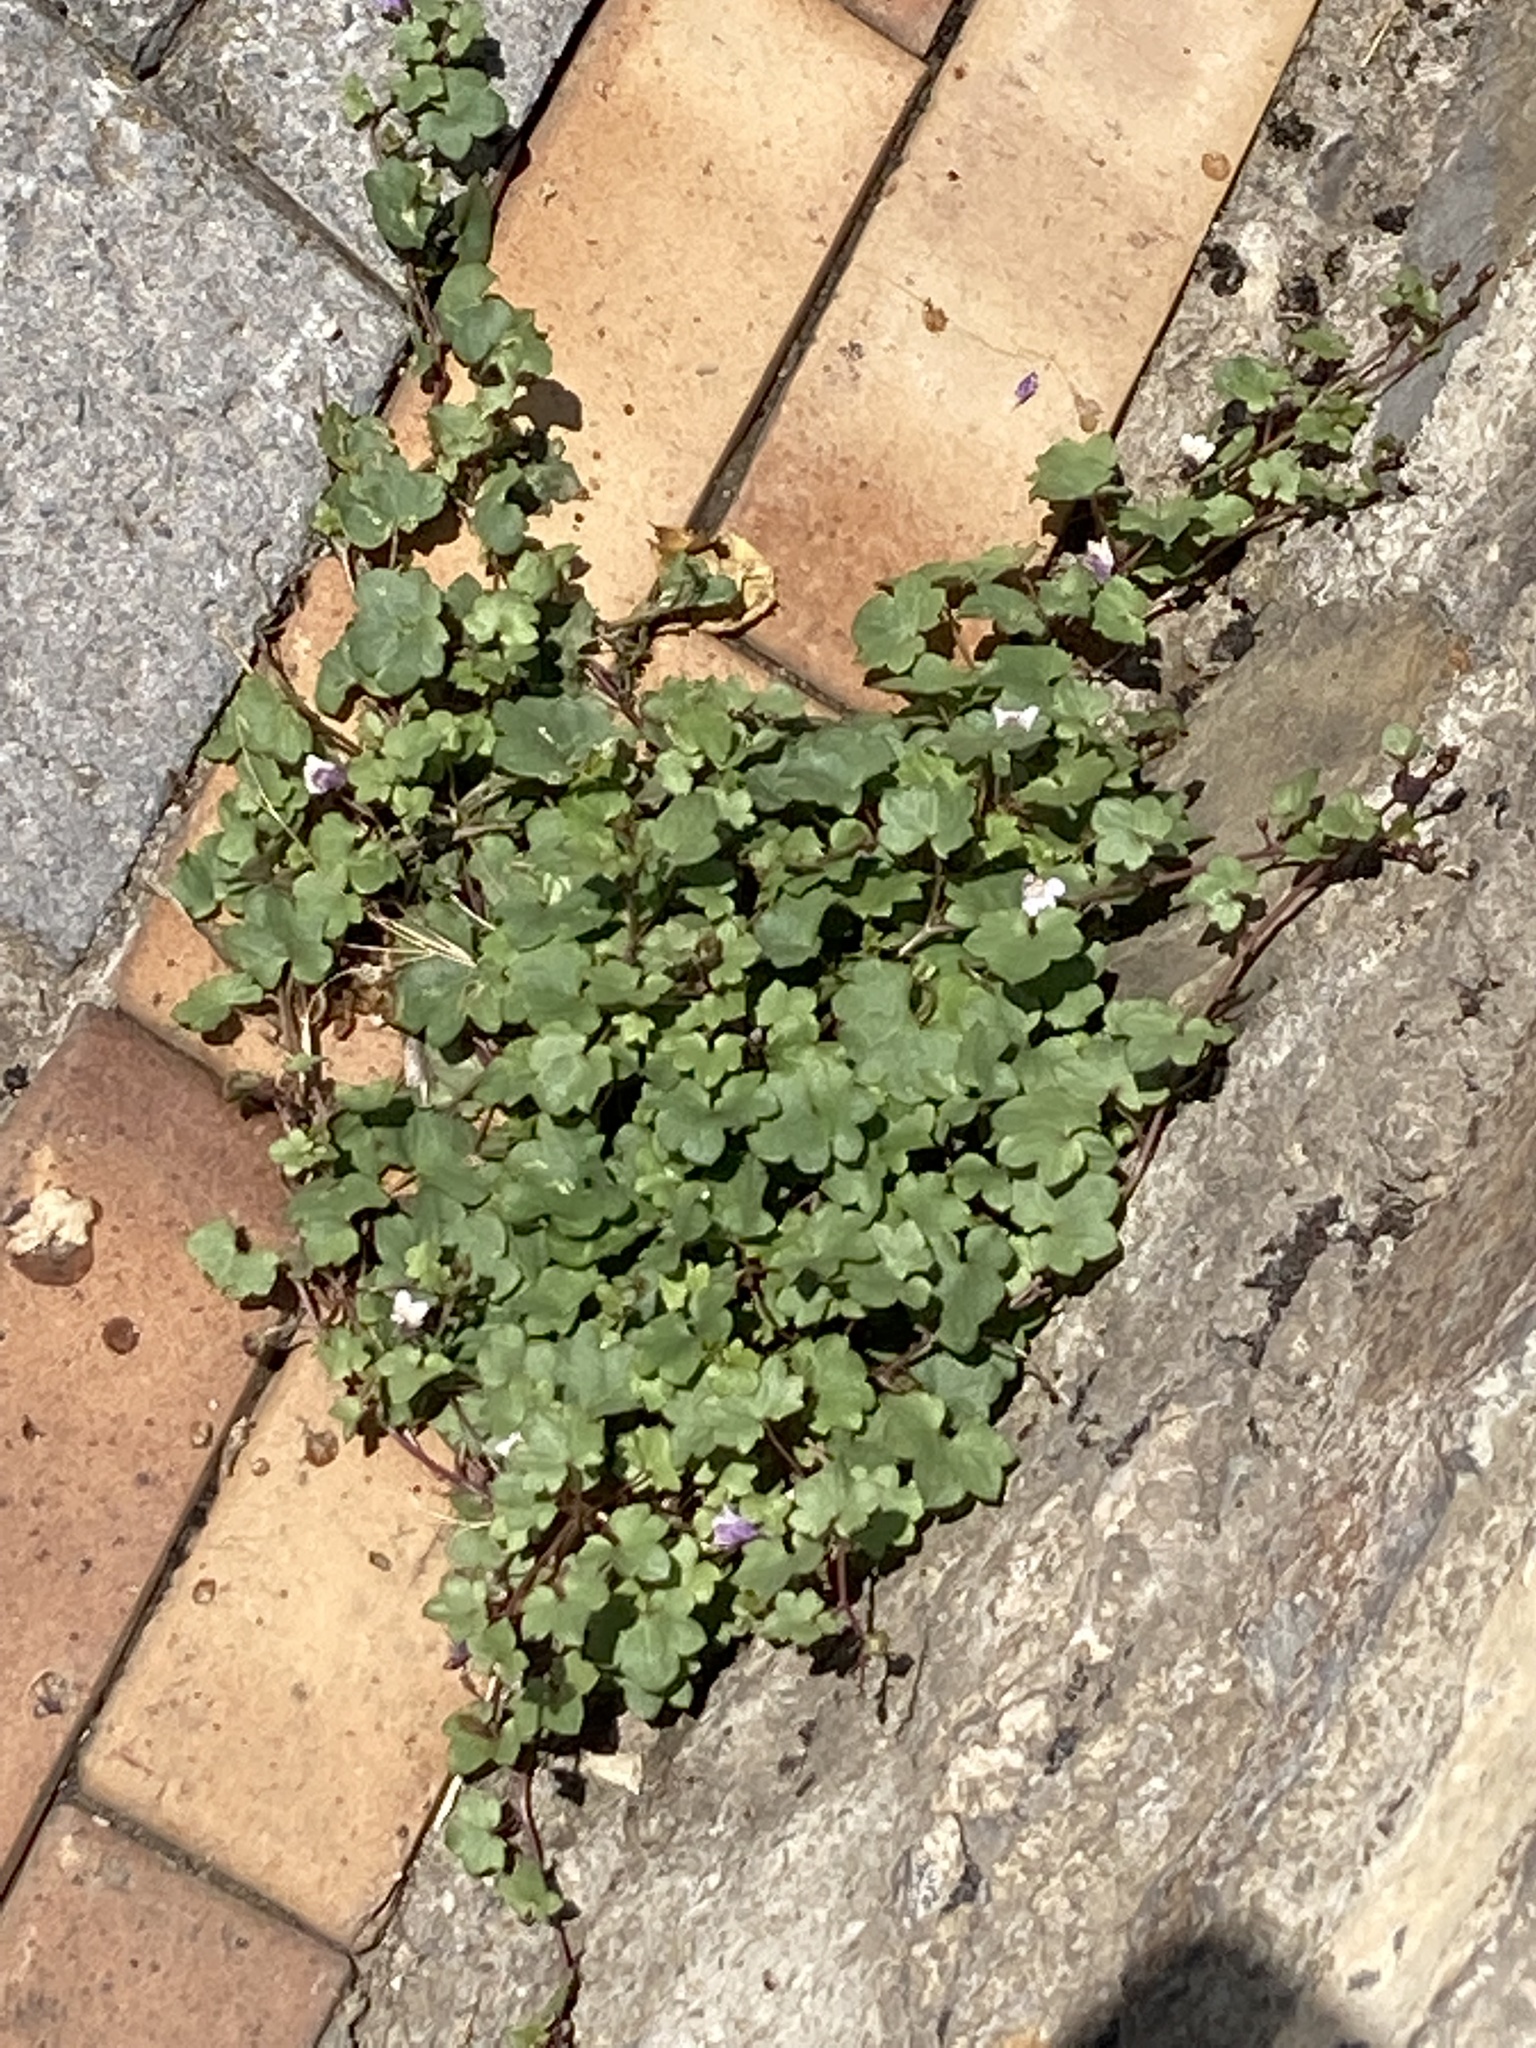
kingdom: Plantae
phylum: Tracheophyta
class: Magnoliopsida
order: Lamiales
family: Plantaginaceae
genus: Cymbalaria
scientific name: Cymbalaria muralis
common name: Ivy-leaved toadflax
